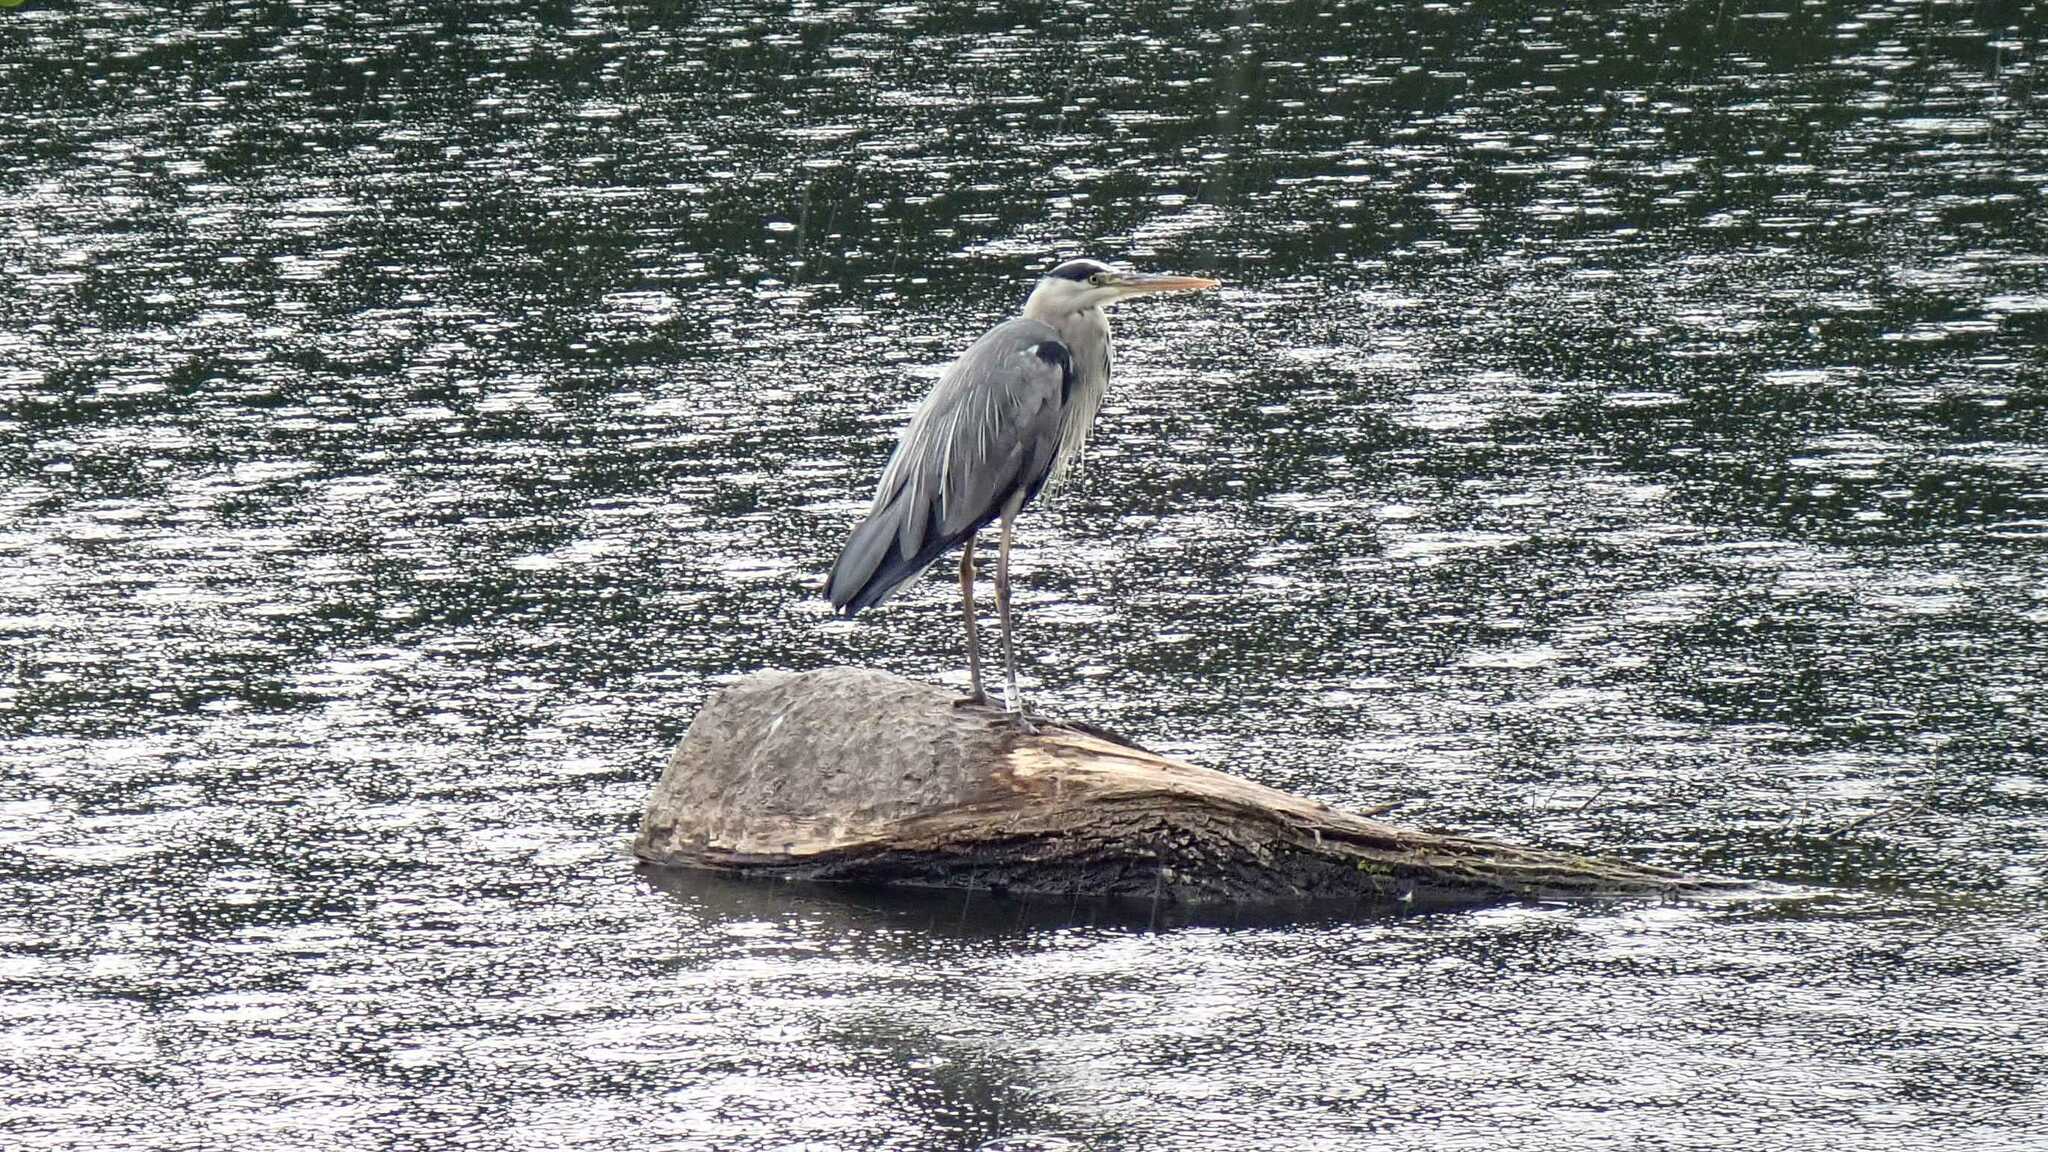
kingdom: Animalia
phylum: Chordata
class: Aves
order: Pelecaniformes
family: Ardeidae
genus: Ardea
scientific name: Ardea cinerea
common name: Grey heron
